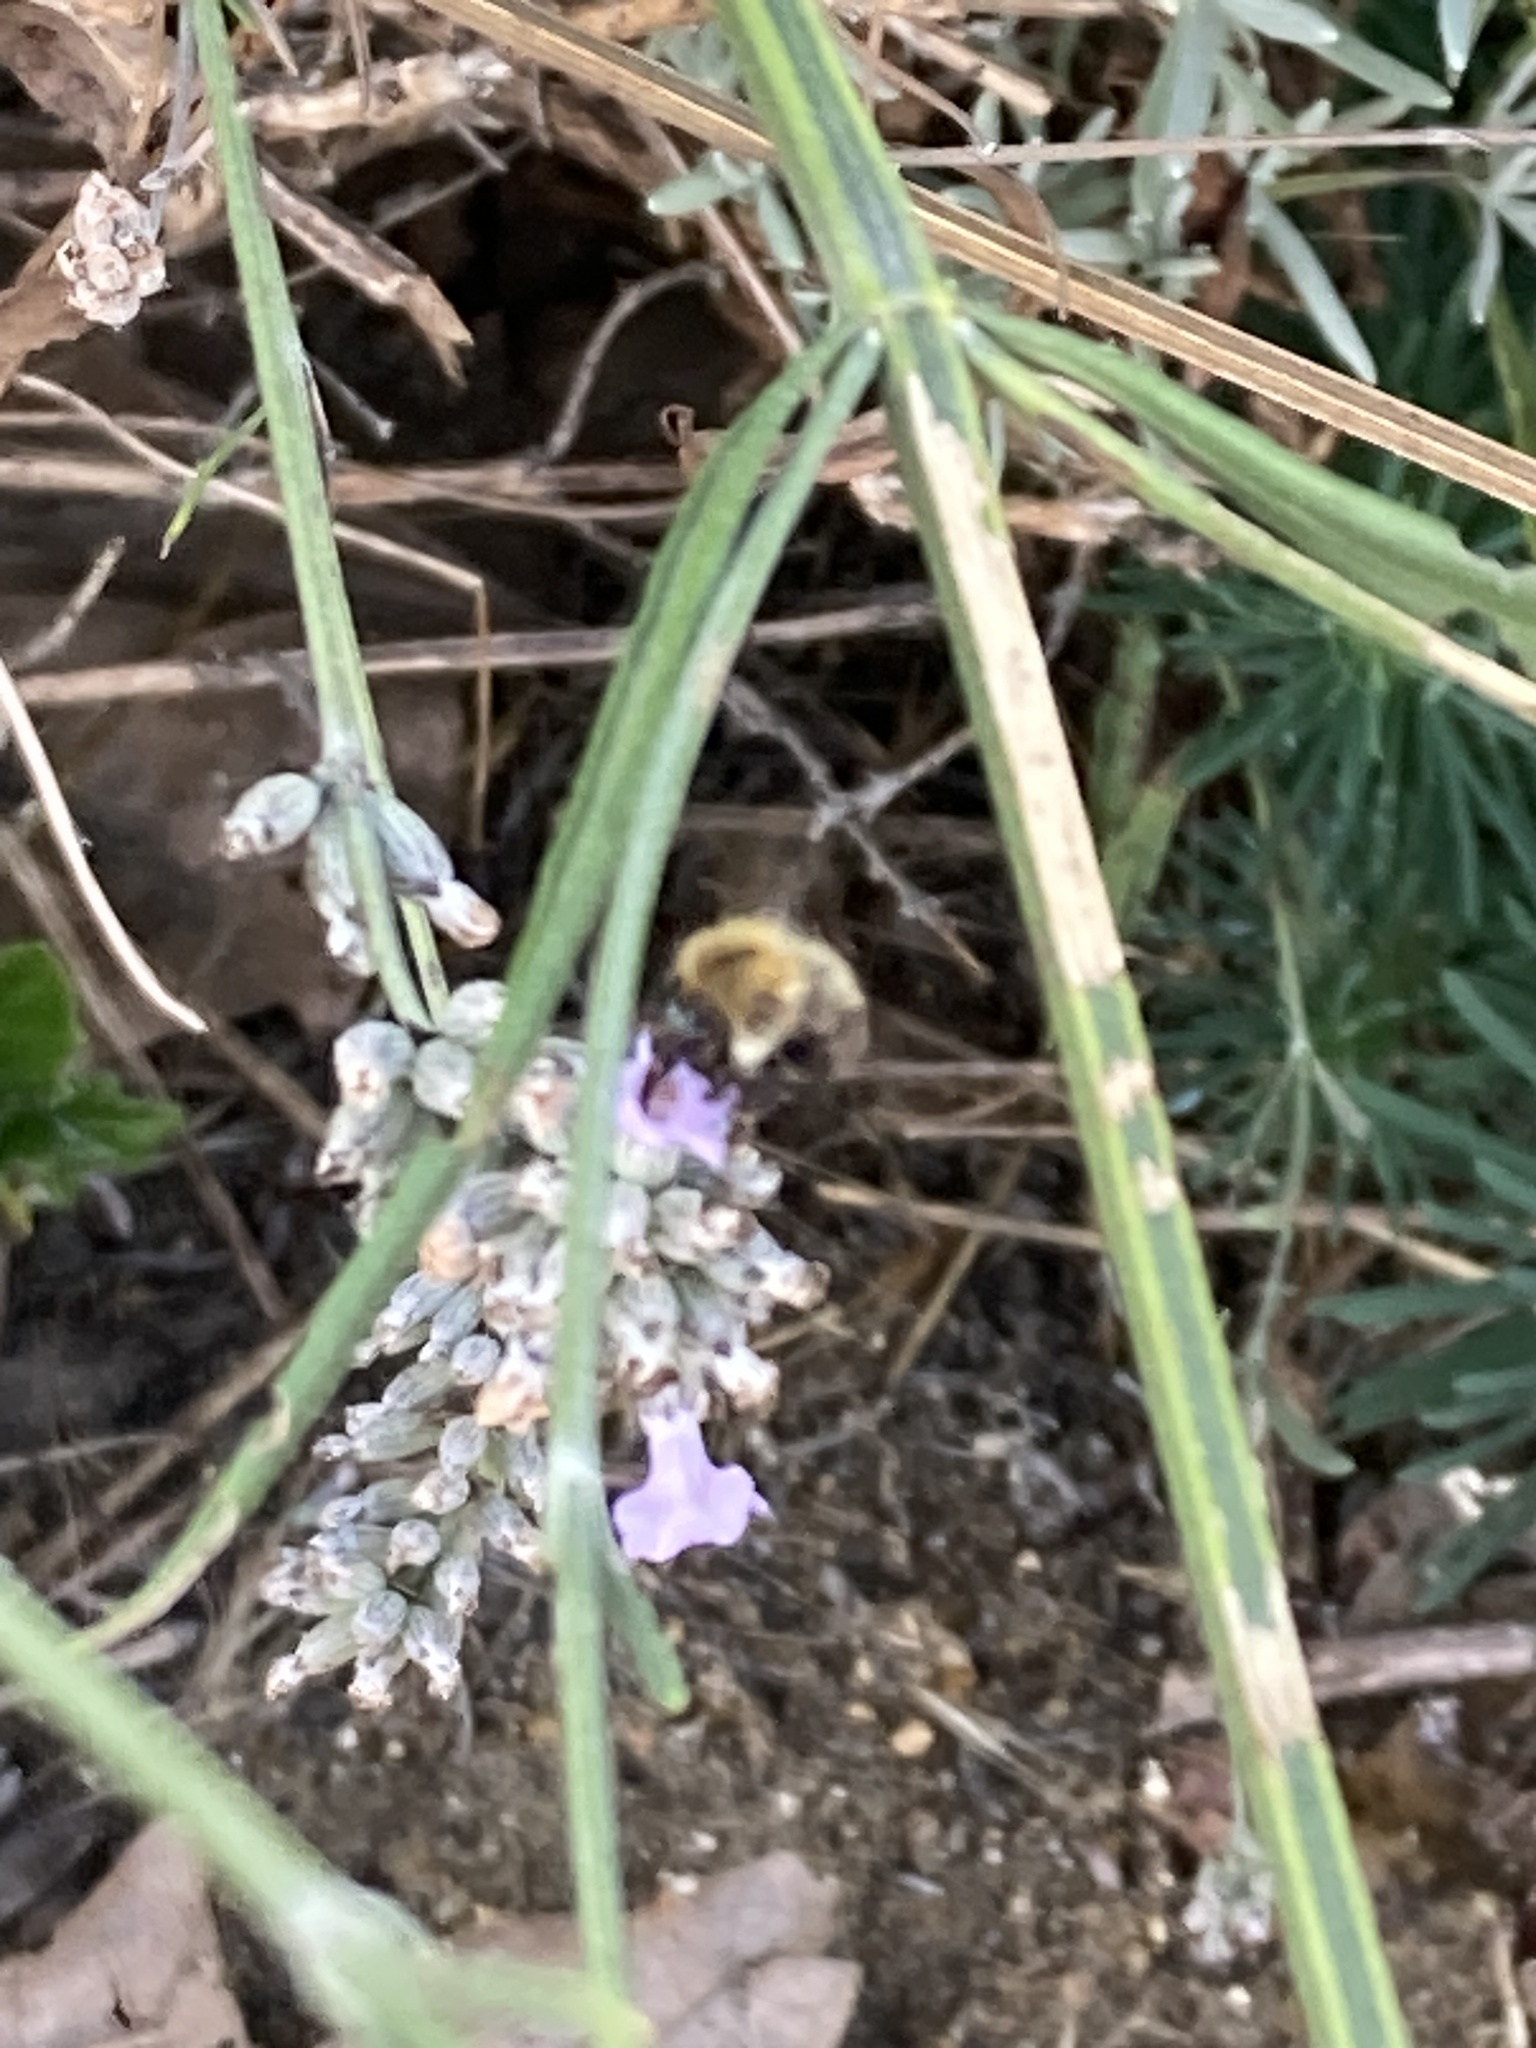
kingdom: Animalia
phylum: Arthropoda
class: Insecta
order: Hymenoptera
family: Apidae
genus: Bombus
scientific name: Bombus pascuorum
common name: Common carder bee
